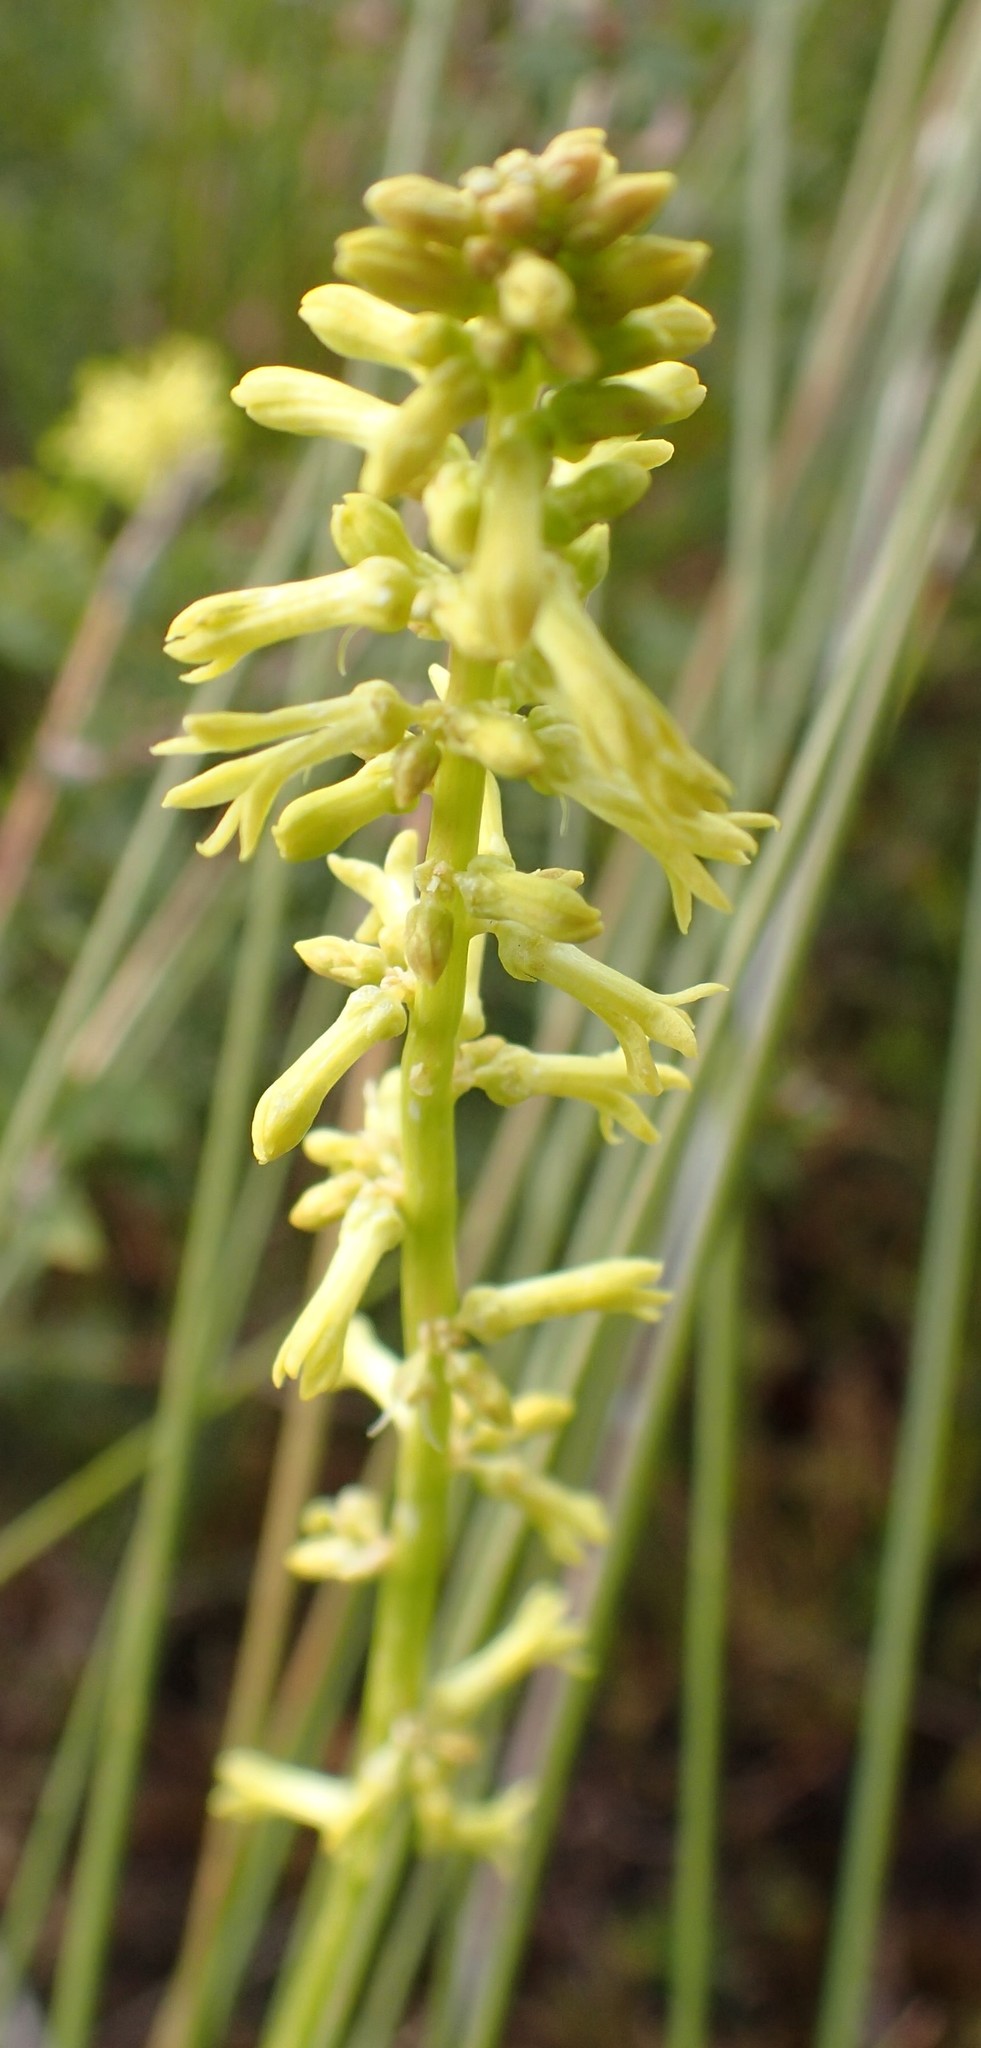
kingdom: Plantae
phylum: Tracheophyta
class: Magnoliopsida
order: Celastrales
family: Celastraceae
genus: Stackhousia
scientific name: Stackhousia viminea
